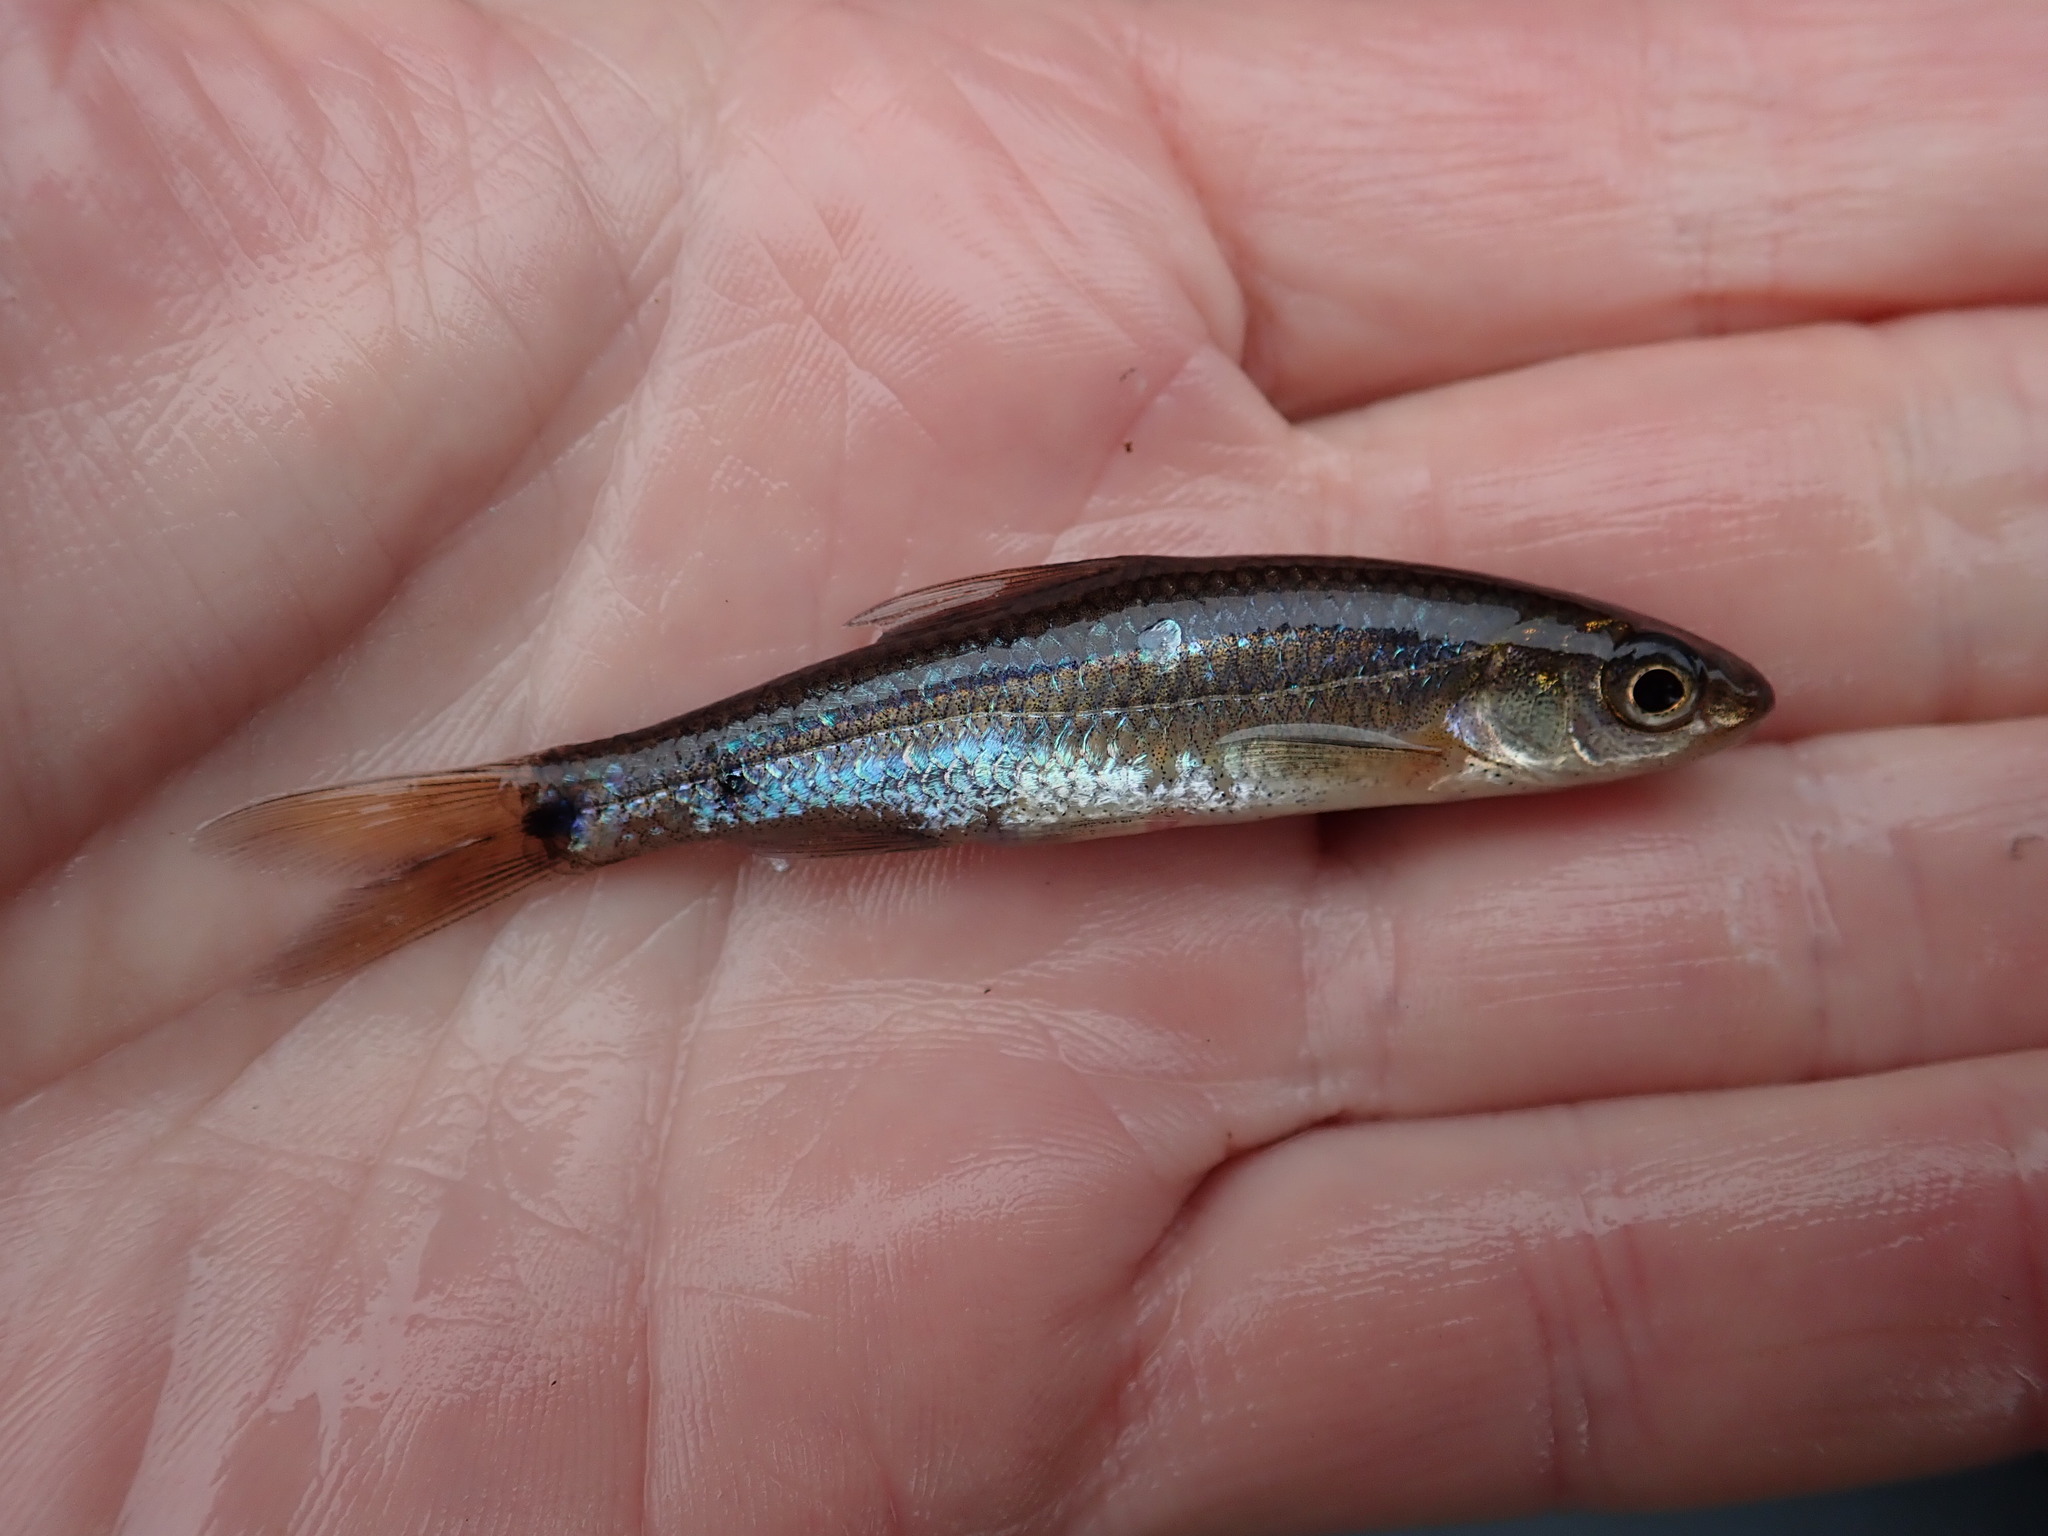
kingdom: Animalia
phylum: Chordata
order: Cypriniformes
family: Cyprinidae
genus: Notropis
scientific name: Notropis
